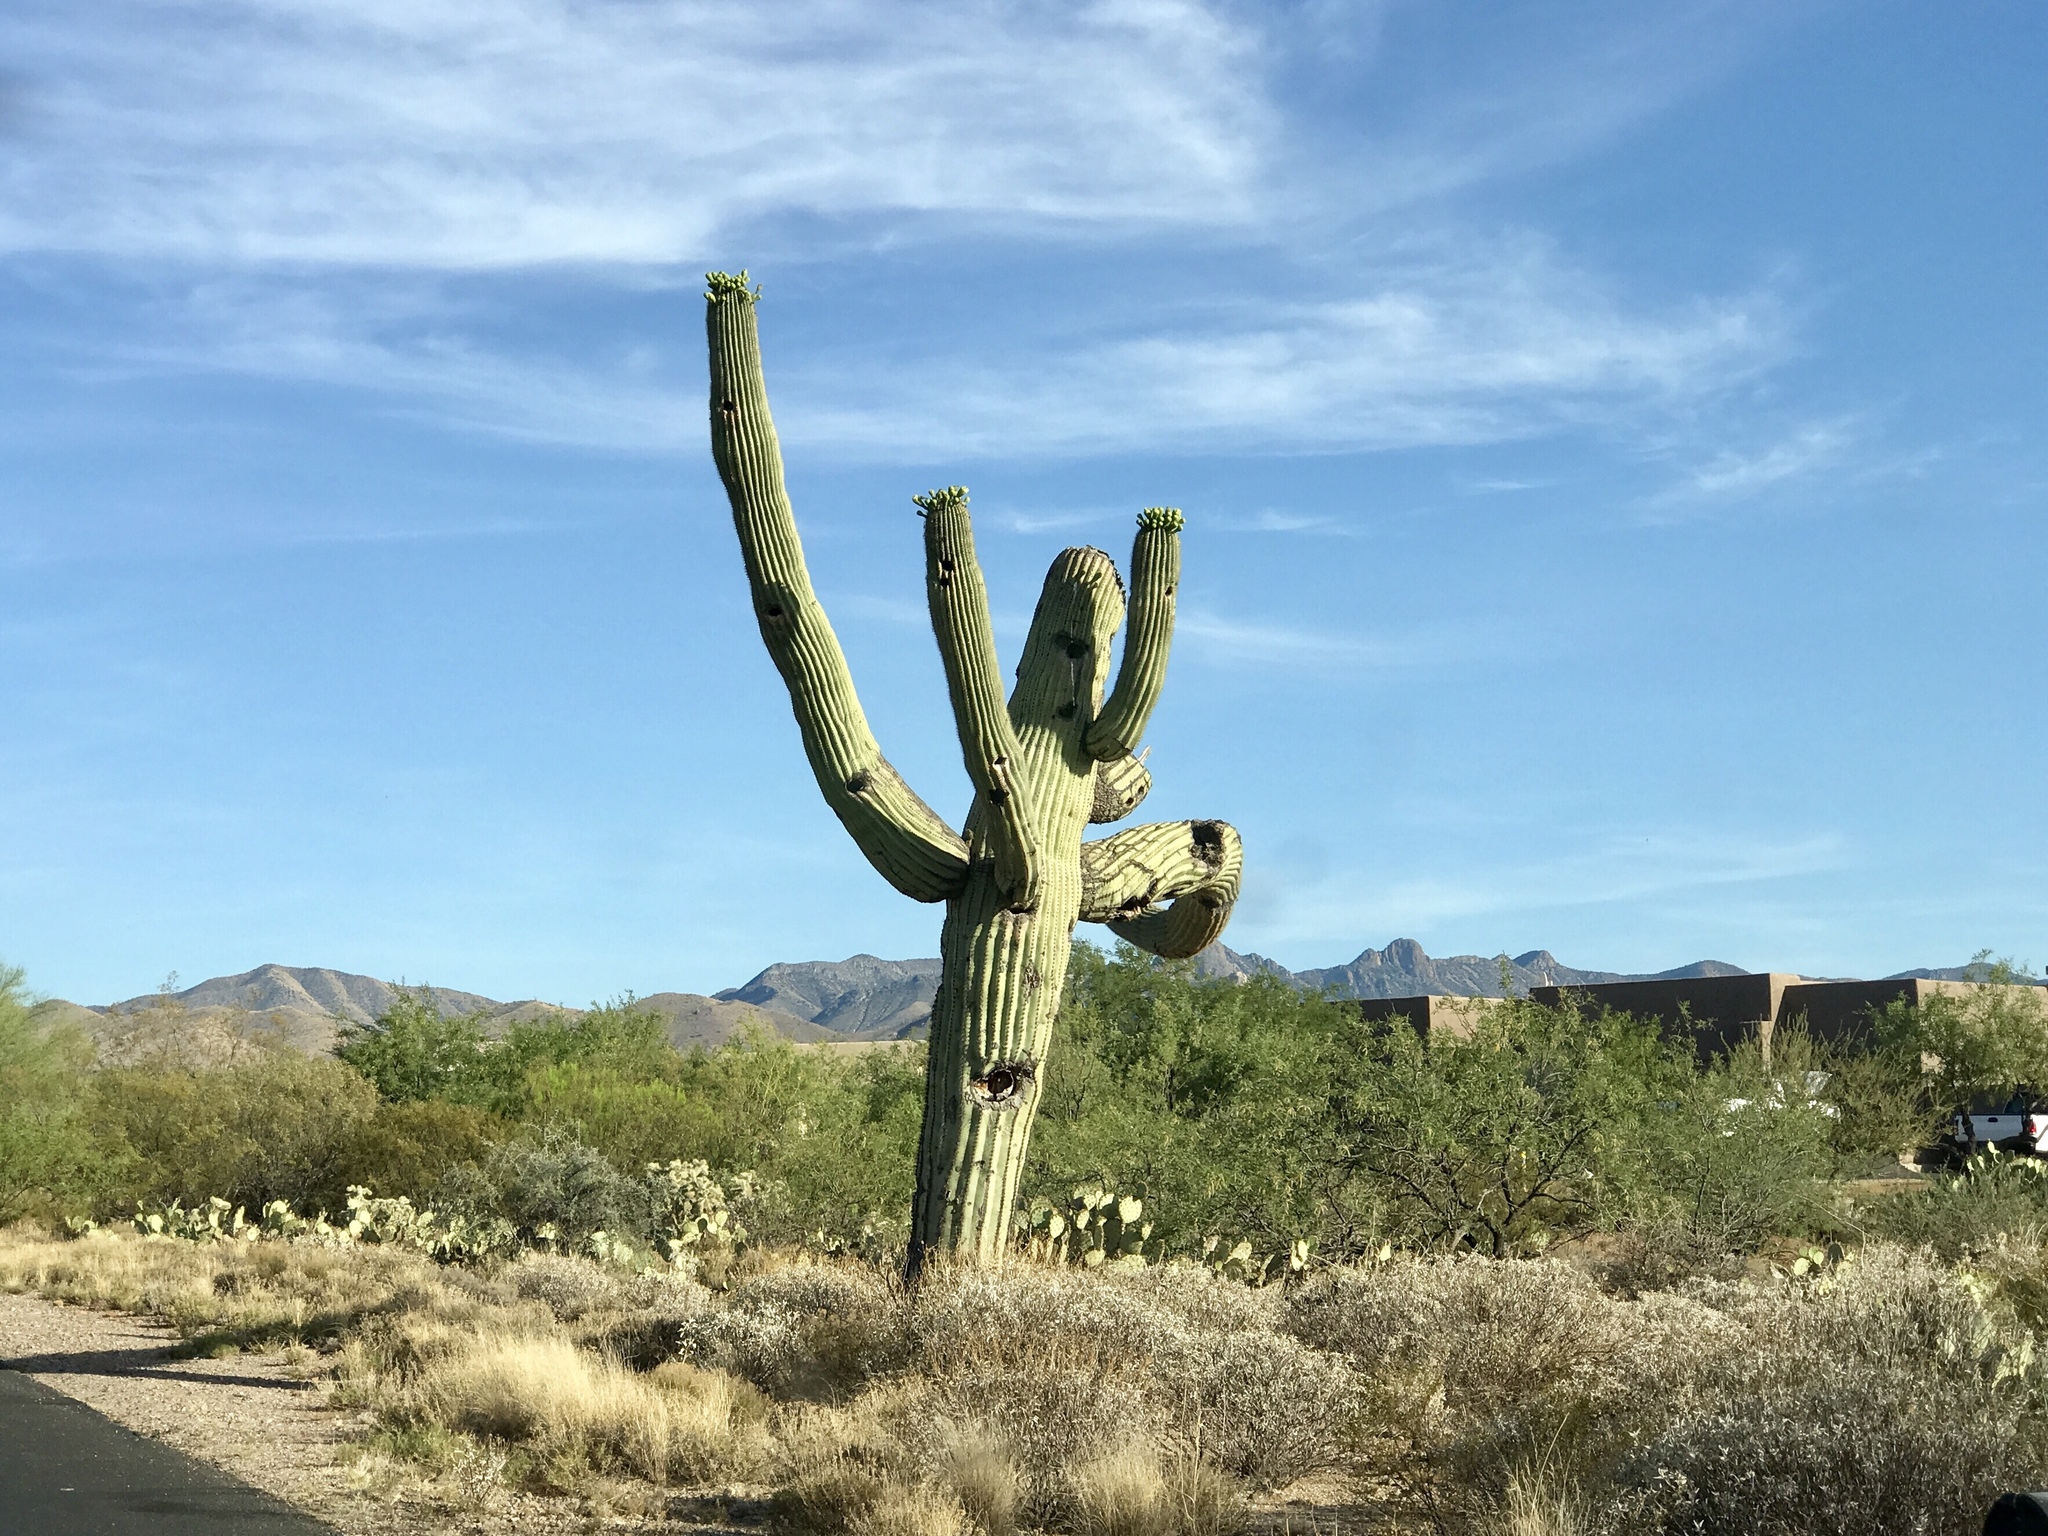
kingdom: Plantae
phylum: Tracheophyta
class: Magnoliopsida
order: Caryophyllales
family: Cactaceae
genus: Carnegiea
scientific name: Carnegiea gigantea
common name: Saguaro
